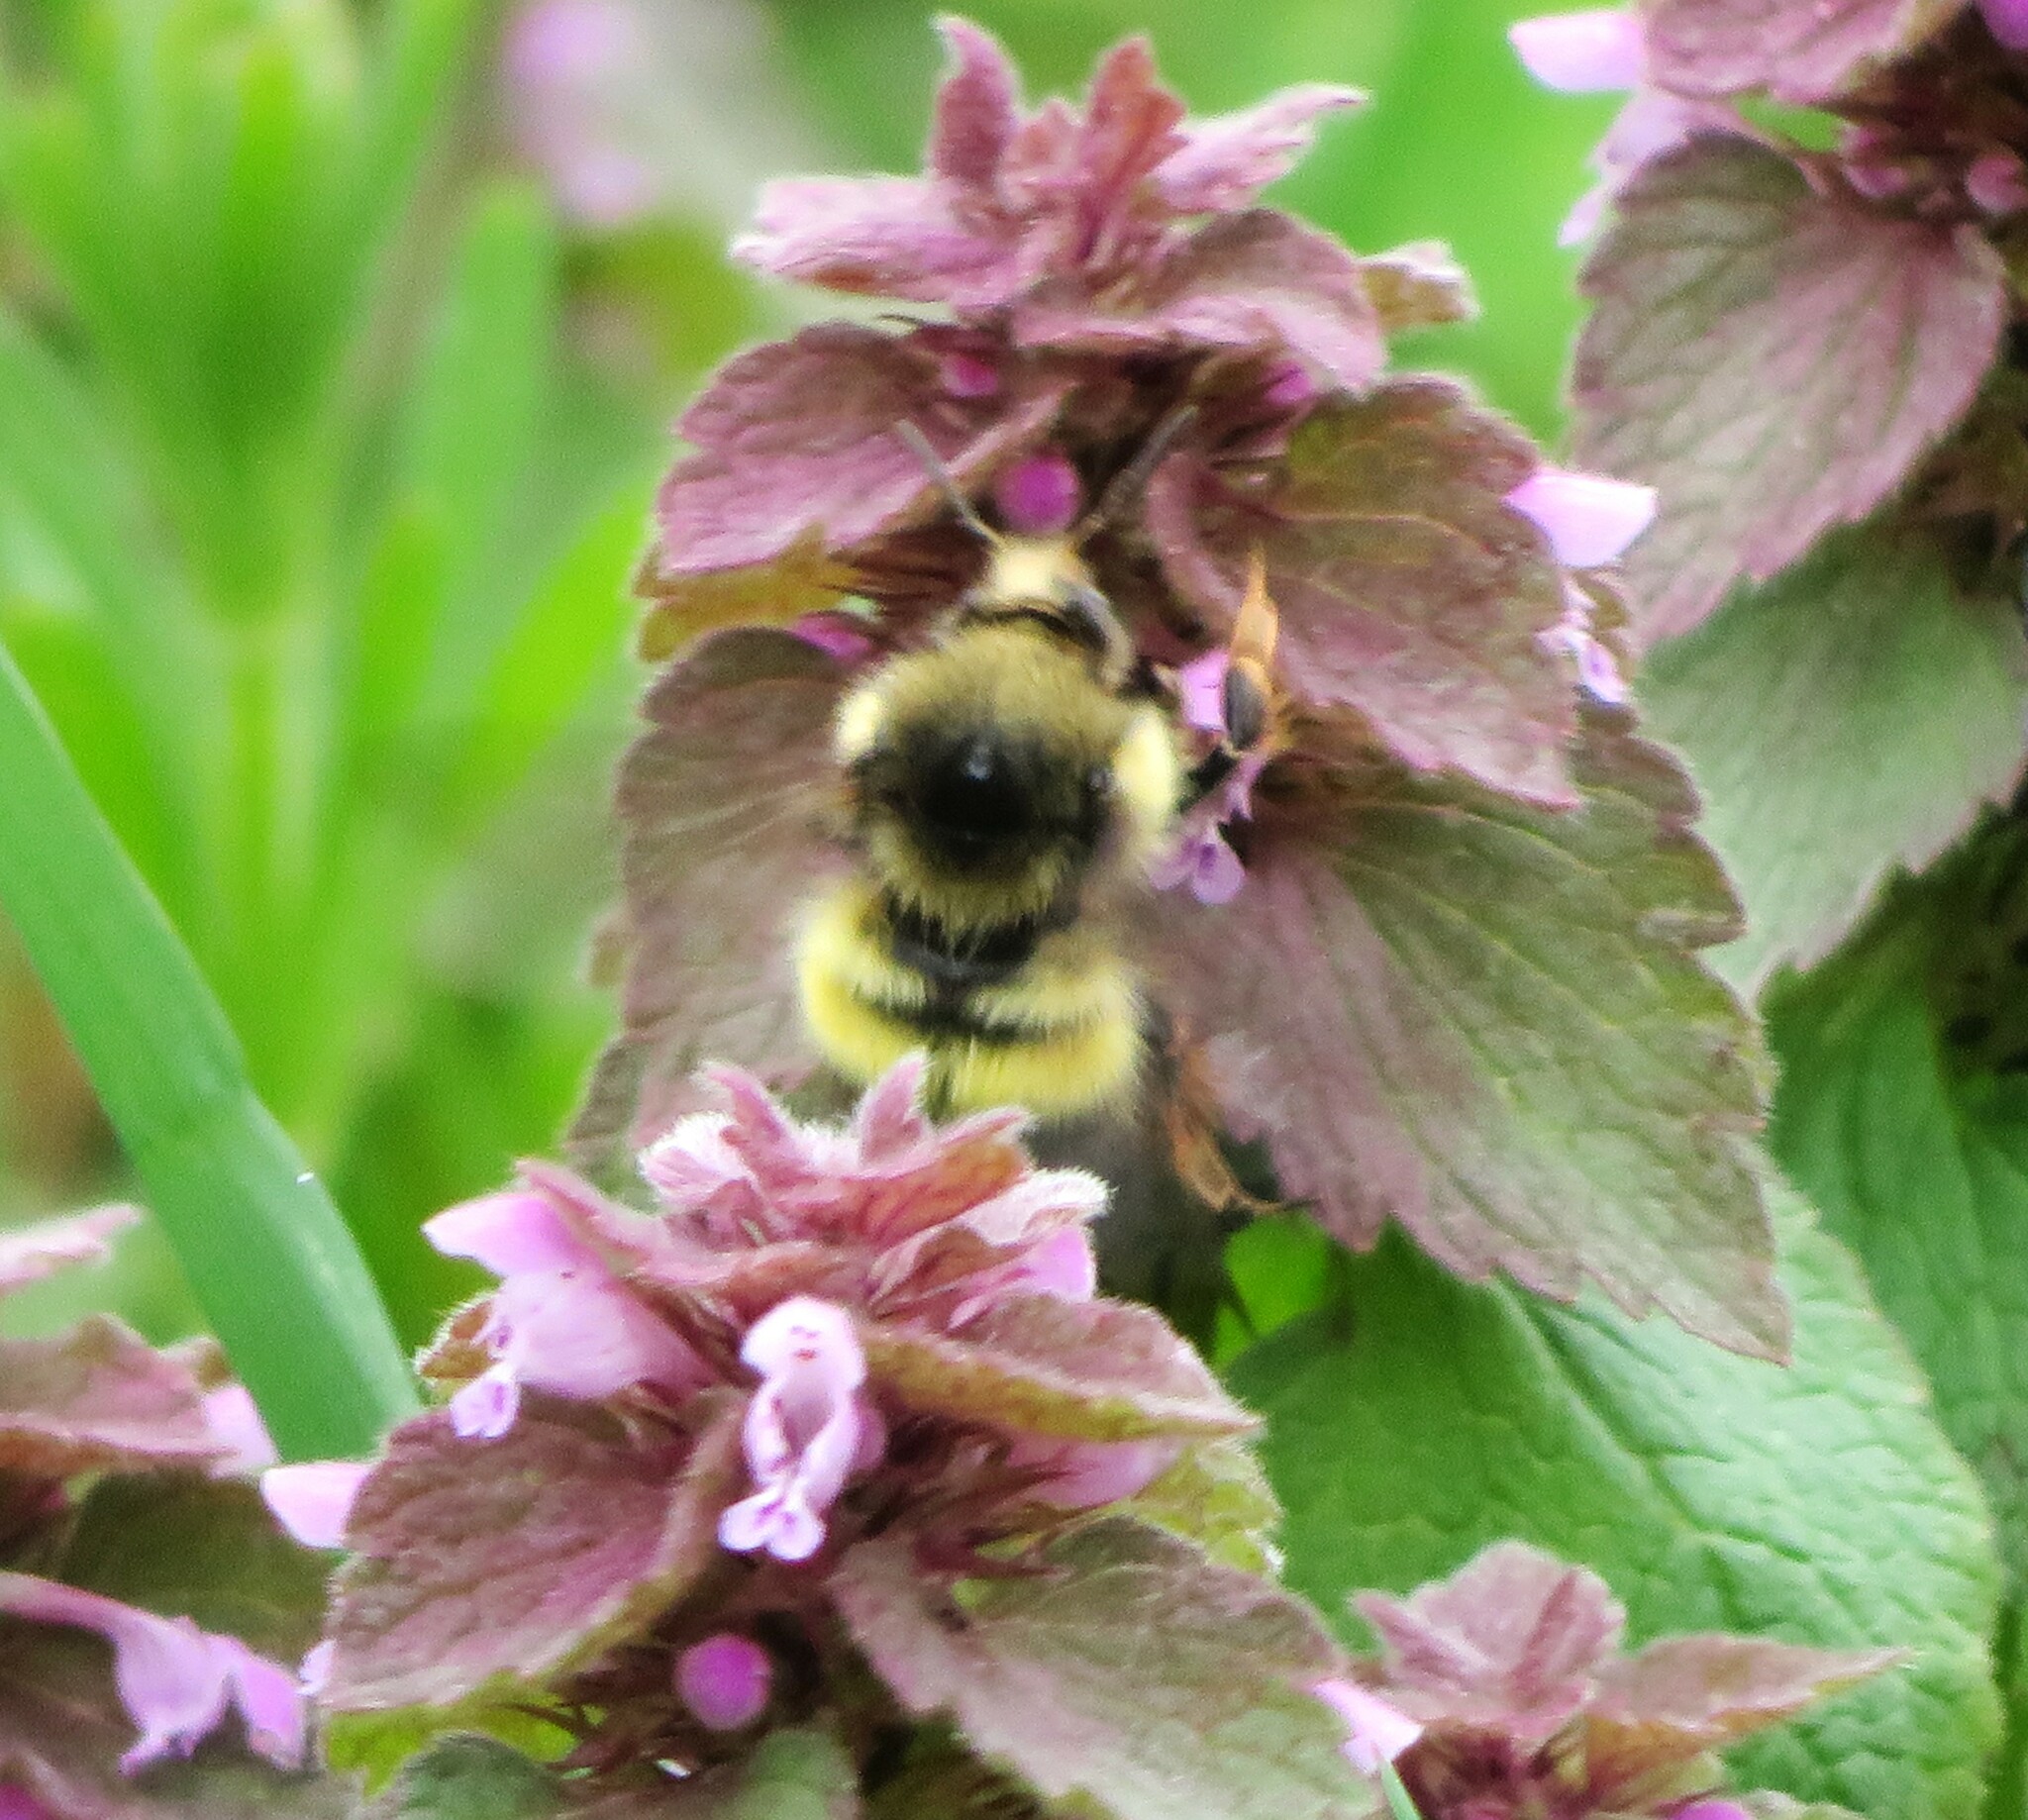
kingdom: Animalia
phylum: Arthropoda
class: Insecta
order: Hymenoptera
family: Apidae
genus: Bombus
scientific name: Bombus flavifrons
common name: Yellow head bumble bee
